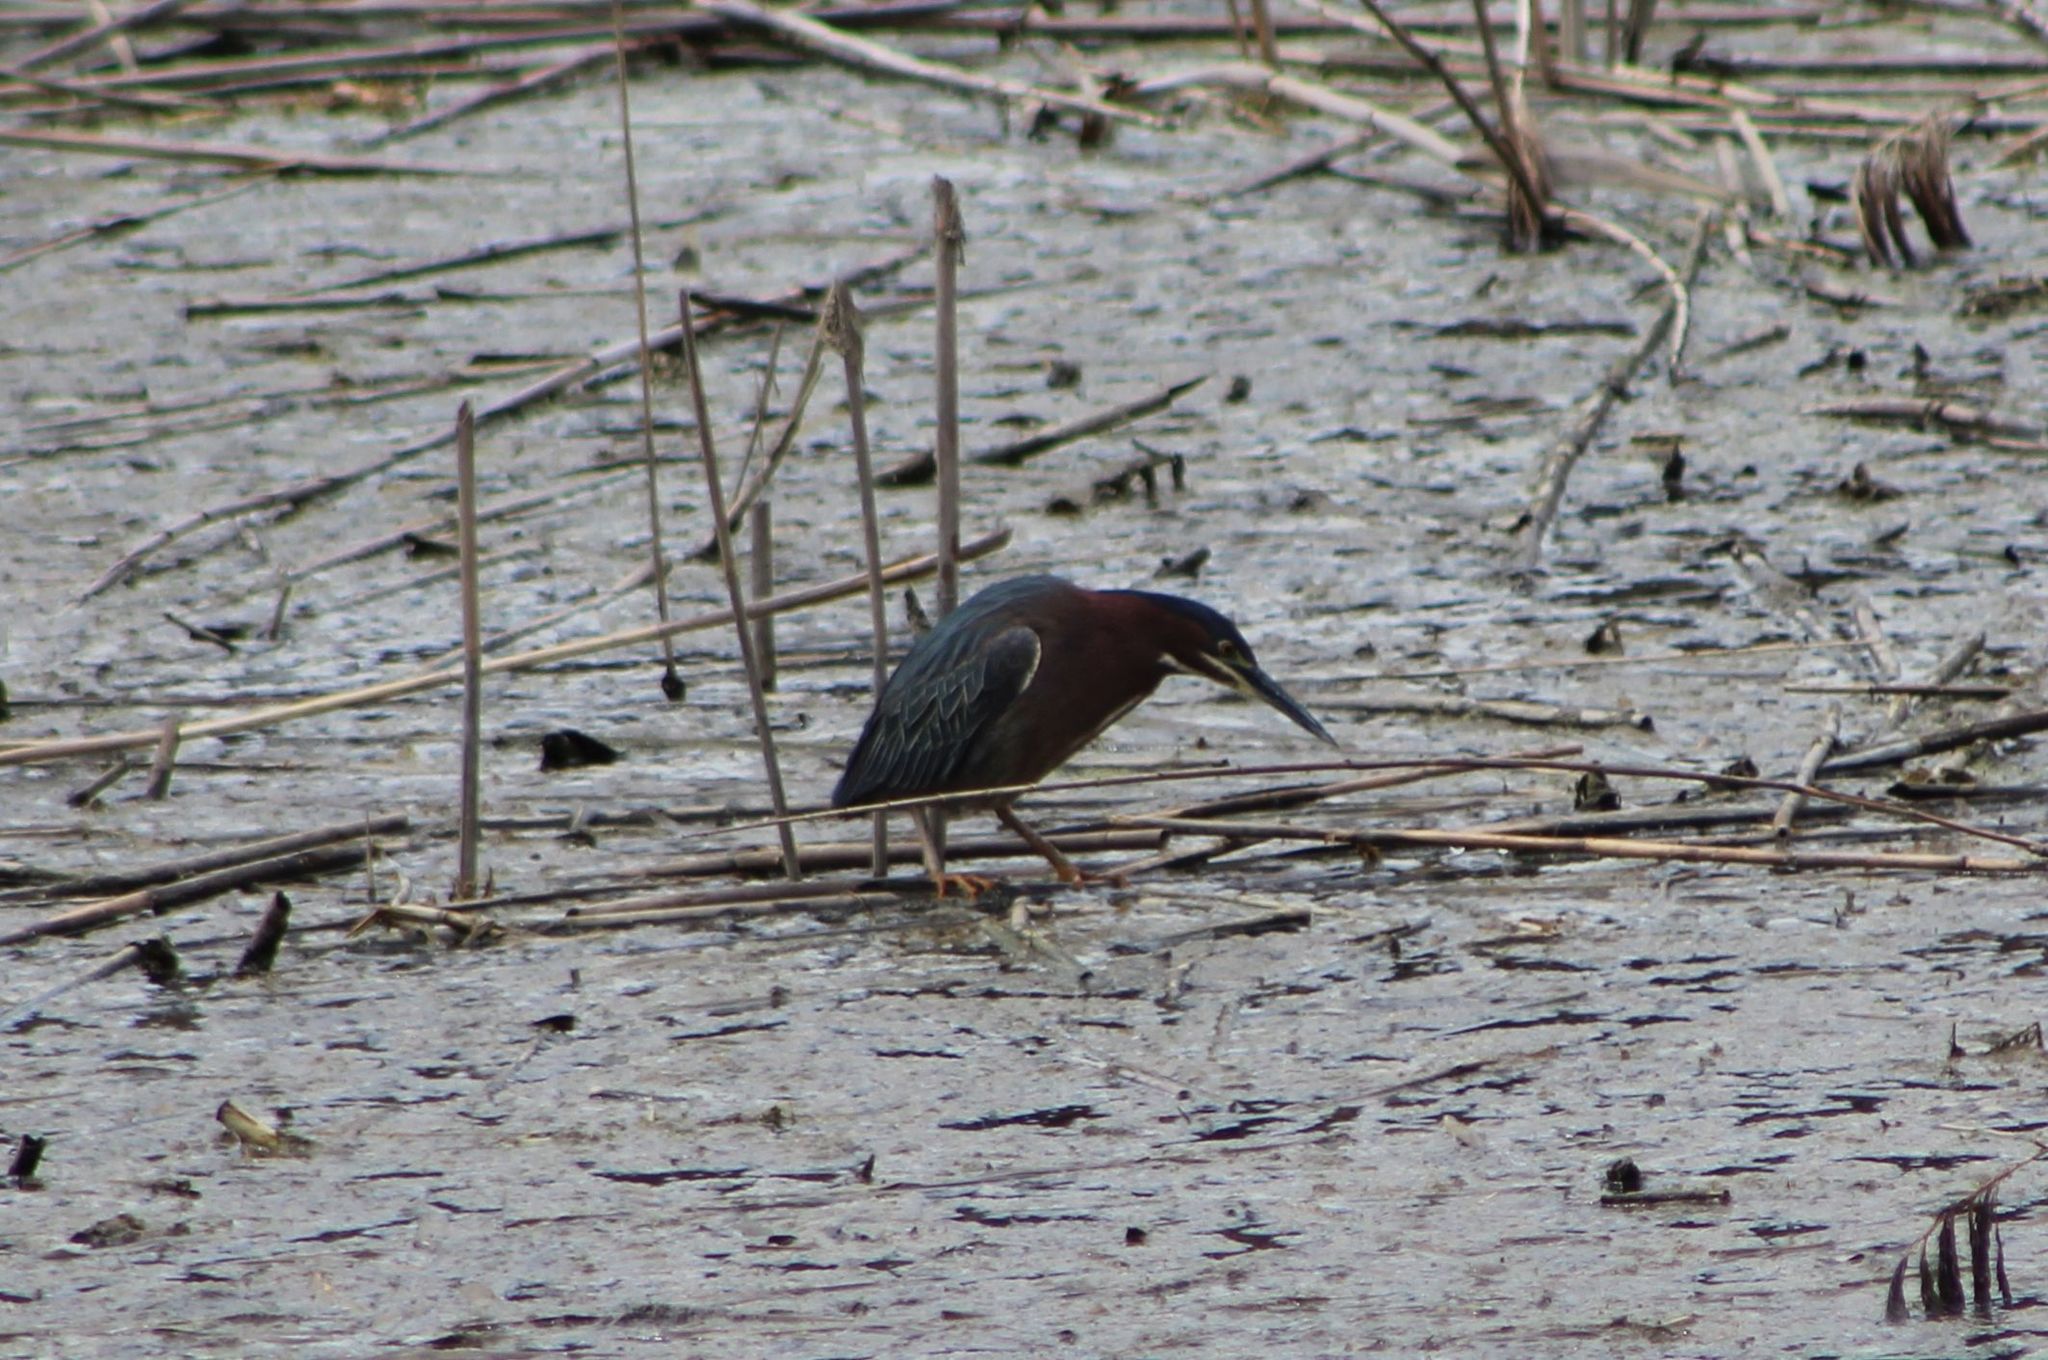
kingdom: Animalia
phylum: Chordata
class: Aves
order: Pelecaniformes
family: Ardeidae
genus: Butorides
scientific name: Butorides virescens
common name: Green heron
